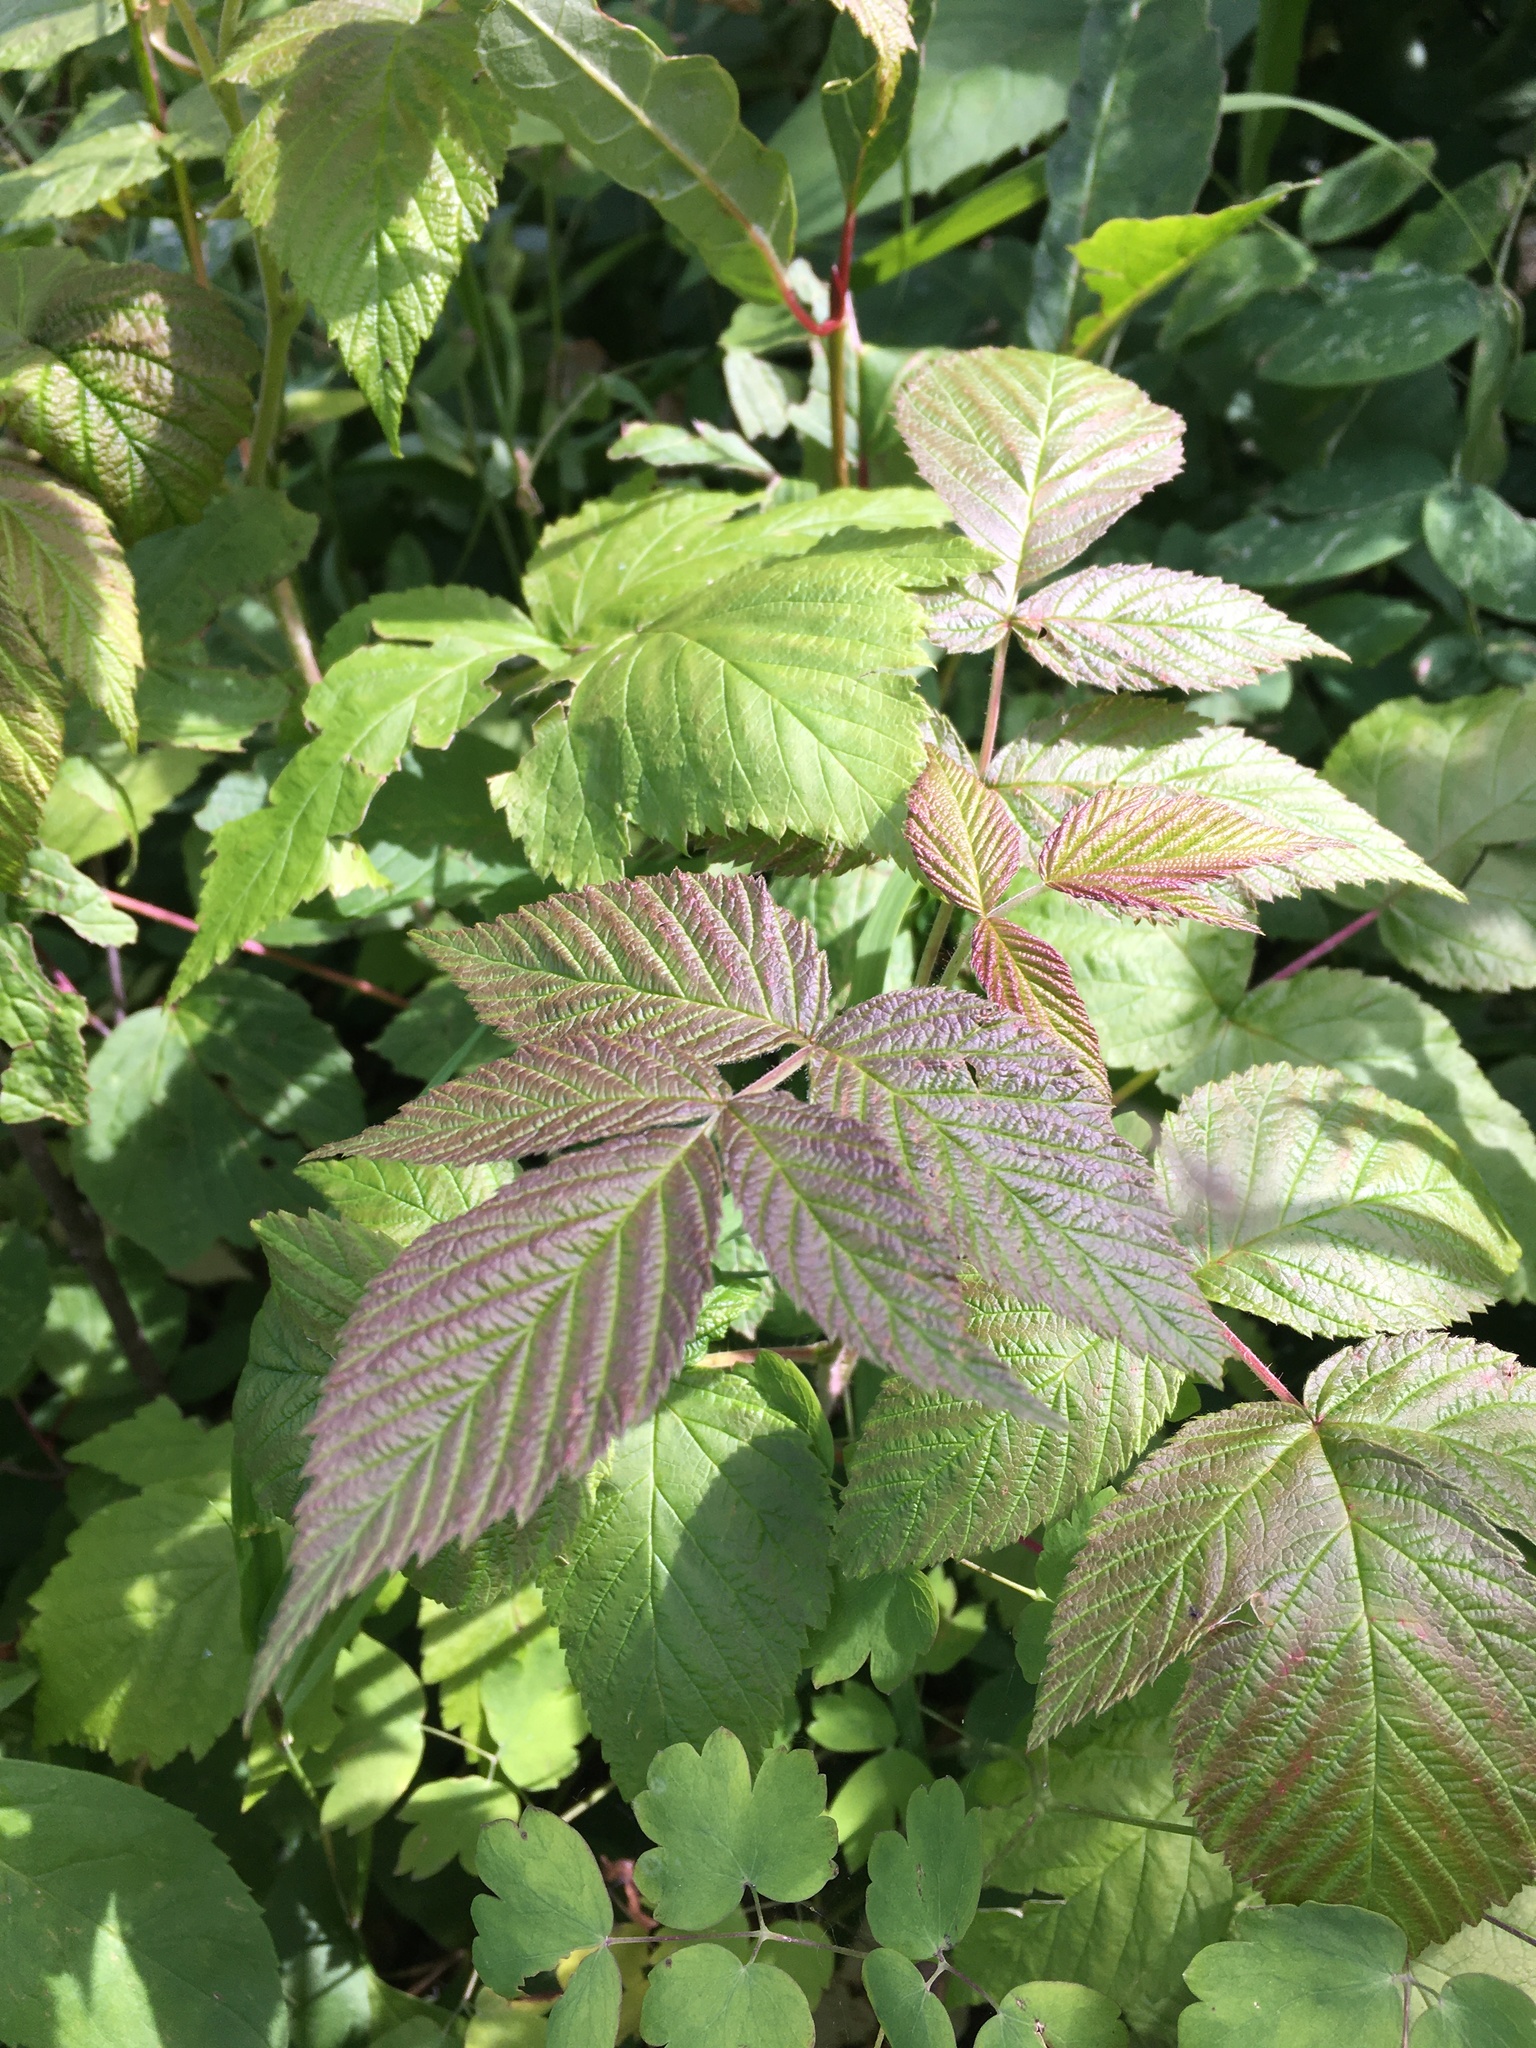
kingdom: Plantae
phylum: Tracheophyta
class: Magnoliopsida
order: Rosales
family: Rosaceae
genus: Rubus
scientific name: Rubus idaeus
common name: Raspberry
